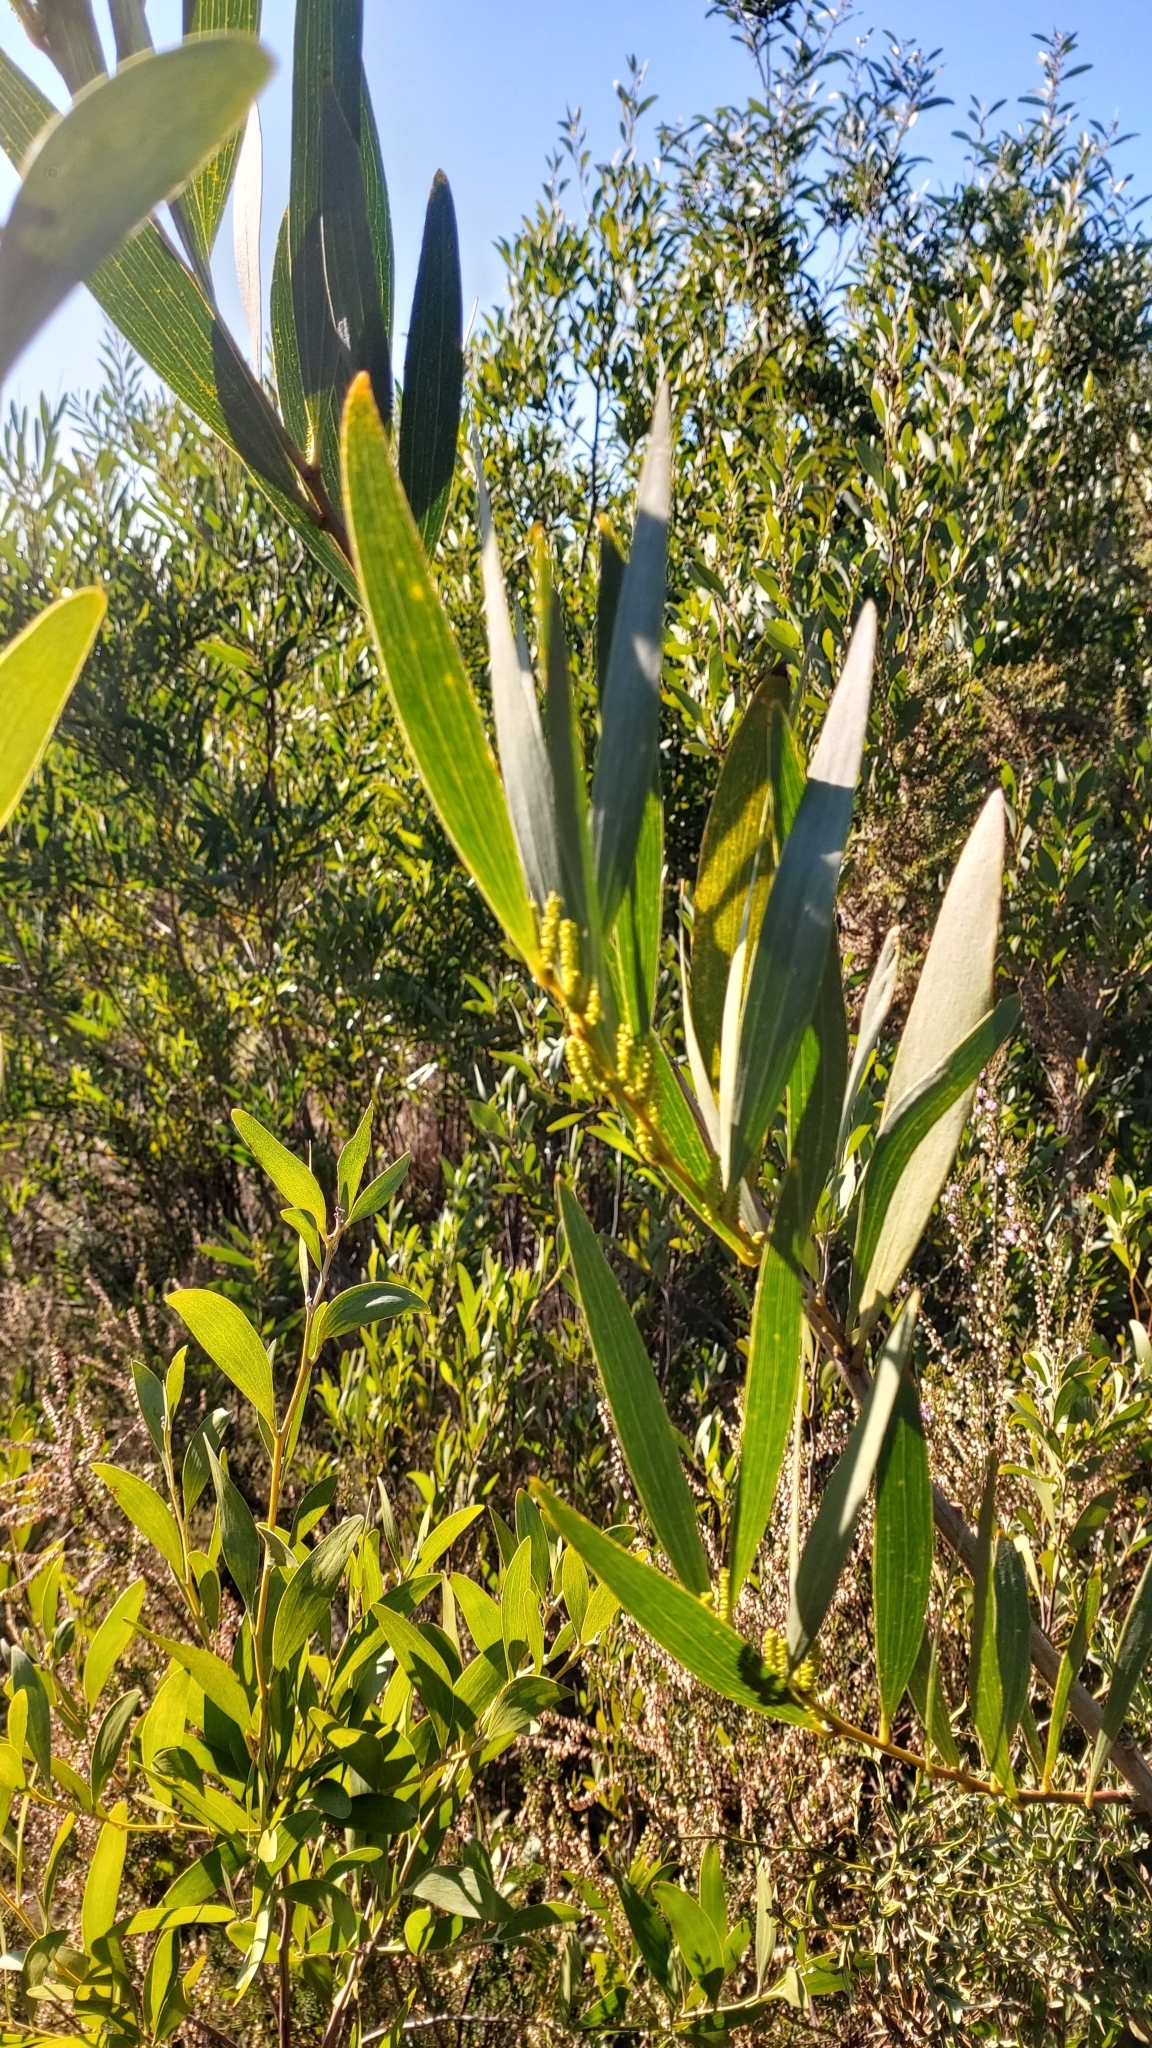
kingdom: Plantae
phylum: Tracheophyta
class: Magnoliopsida
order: Fabales
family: Fabaceae
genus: Acacia
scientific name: Acacia longifolia
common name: Sydney golden wattle
